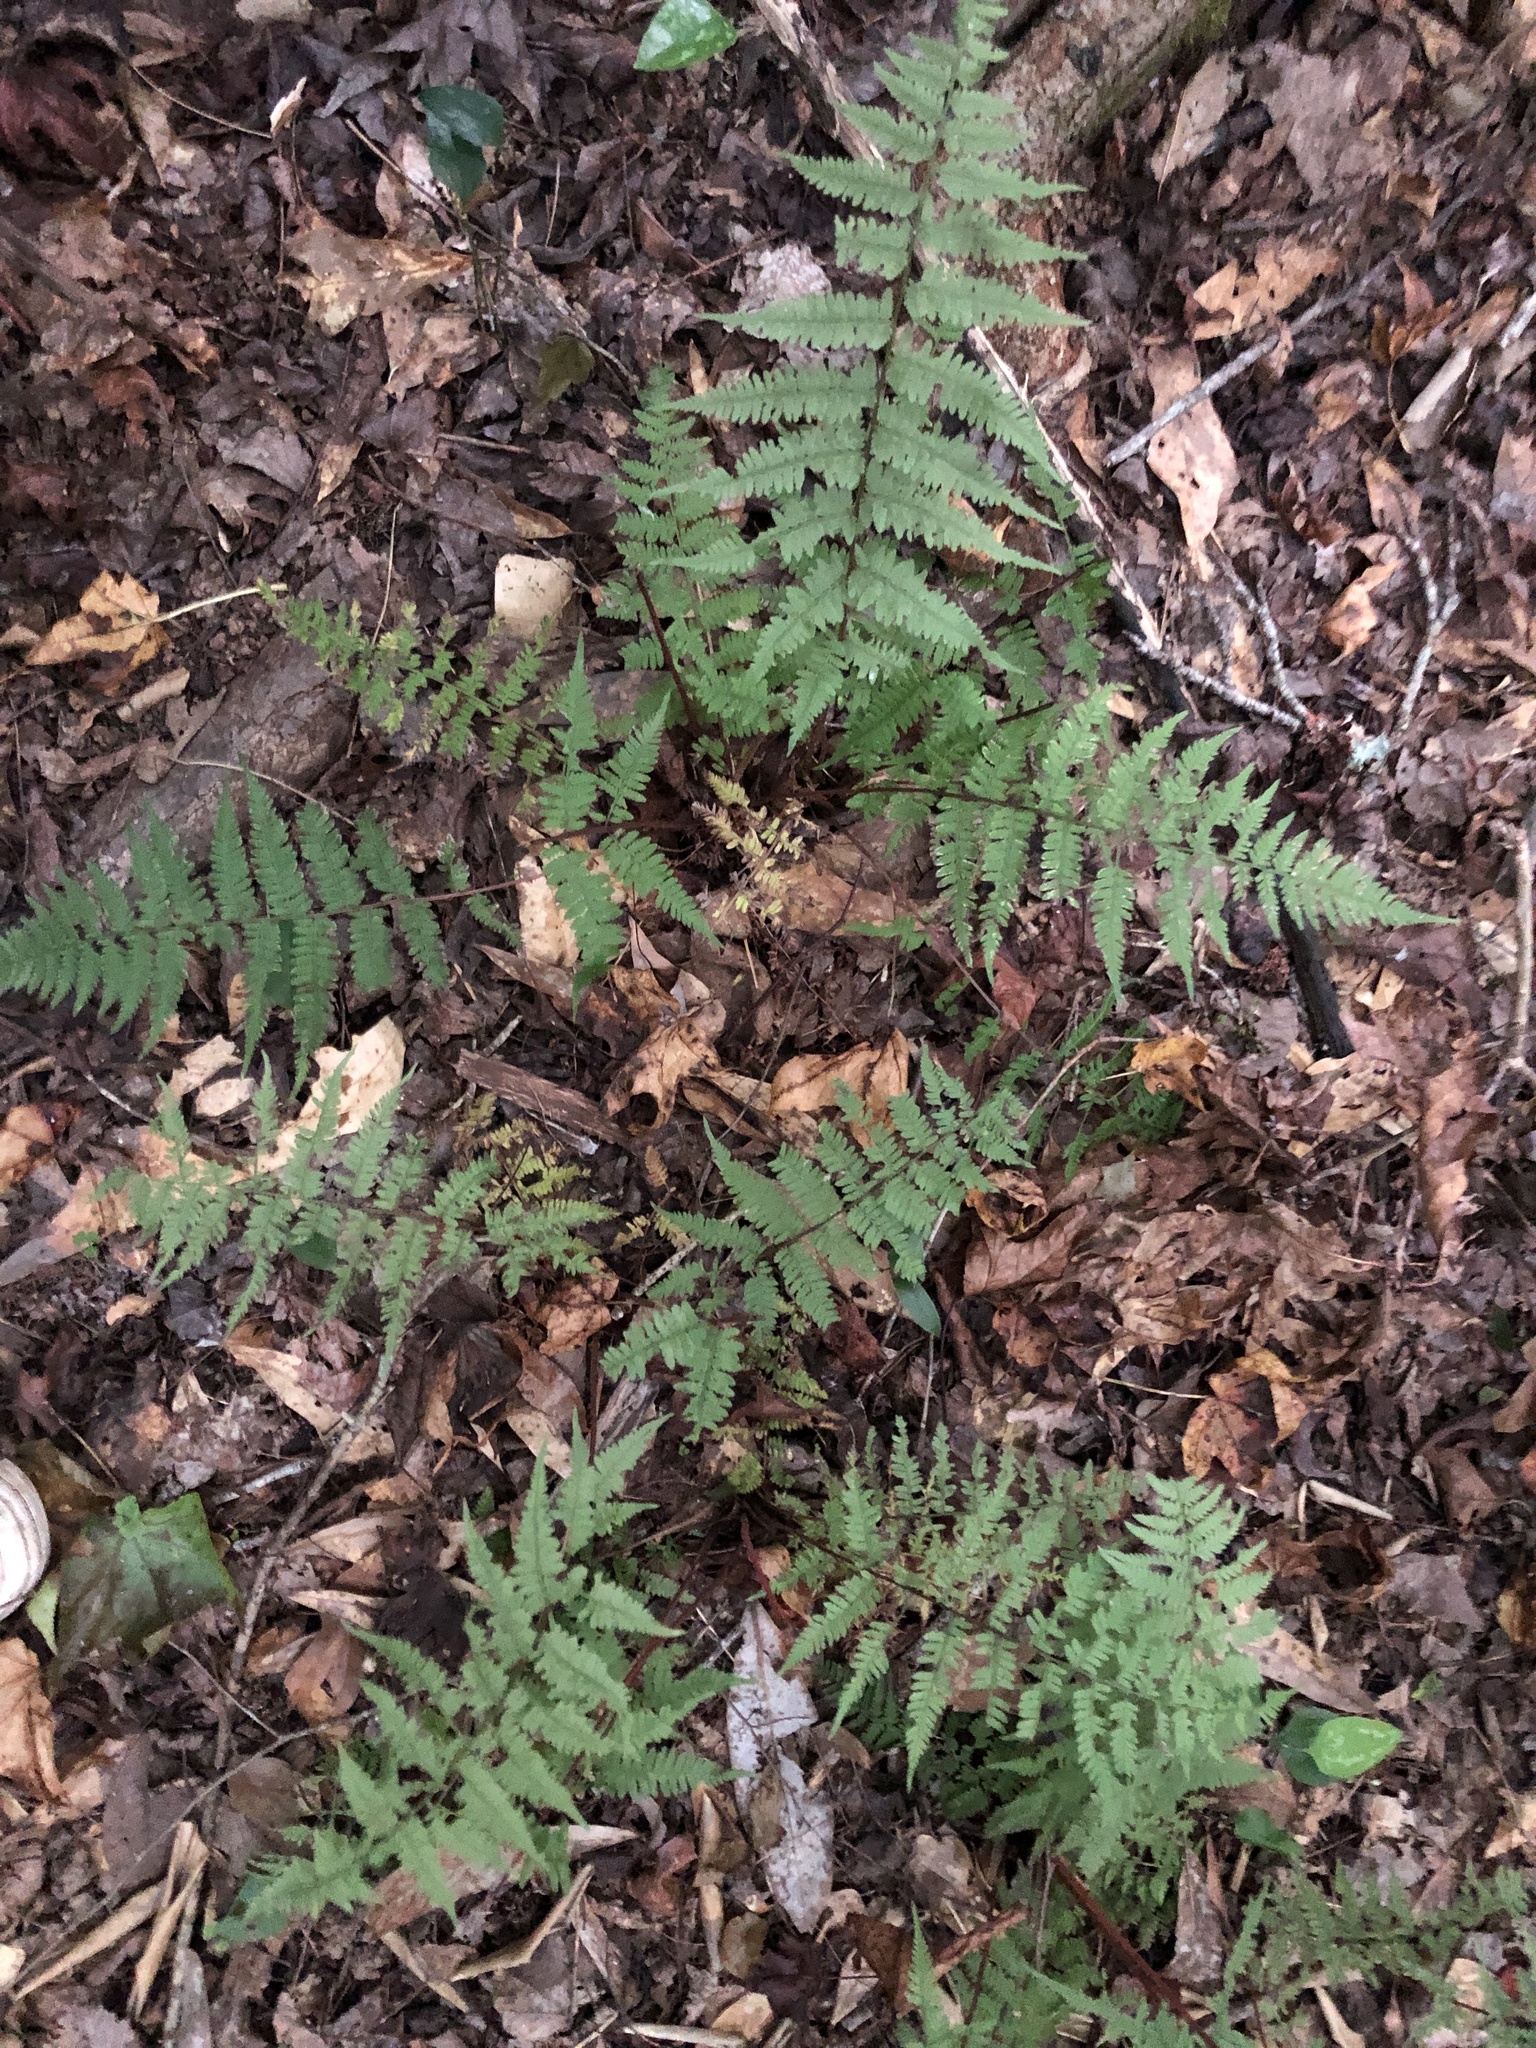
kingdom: Plantae
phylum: Tracheophyta
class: Polypodiopsida
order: Polypodiales
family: Athyriaceae
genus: Athyrium
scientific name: Athyrium asplenioides
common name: Southern lady fern
